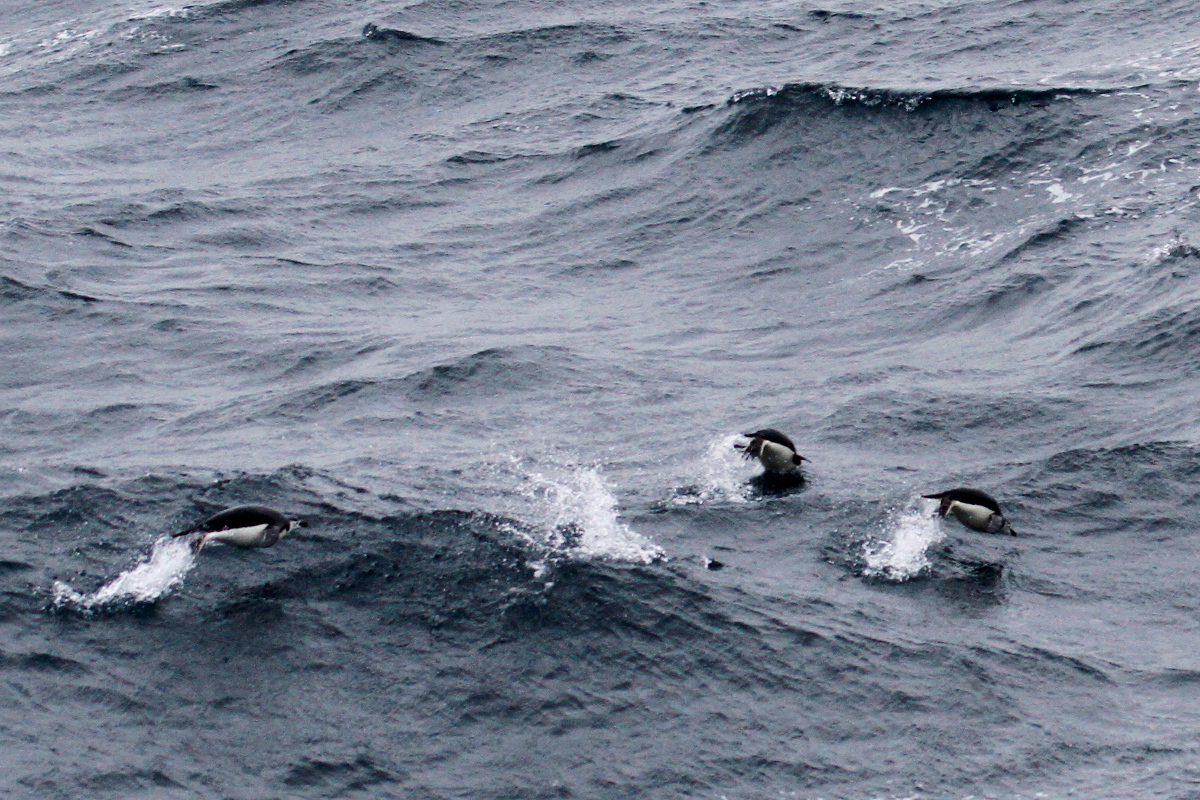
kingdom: Animalia
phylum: Chordata
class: Aves
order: Sphenisciformes
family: Spheniscidae
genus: Pygoscelis
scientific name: Pygoscelis antarcticus
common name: Chinstrap penguin
